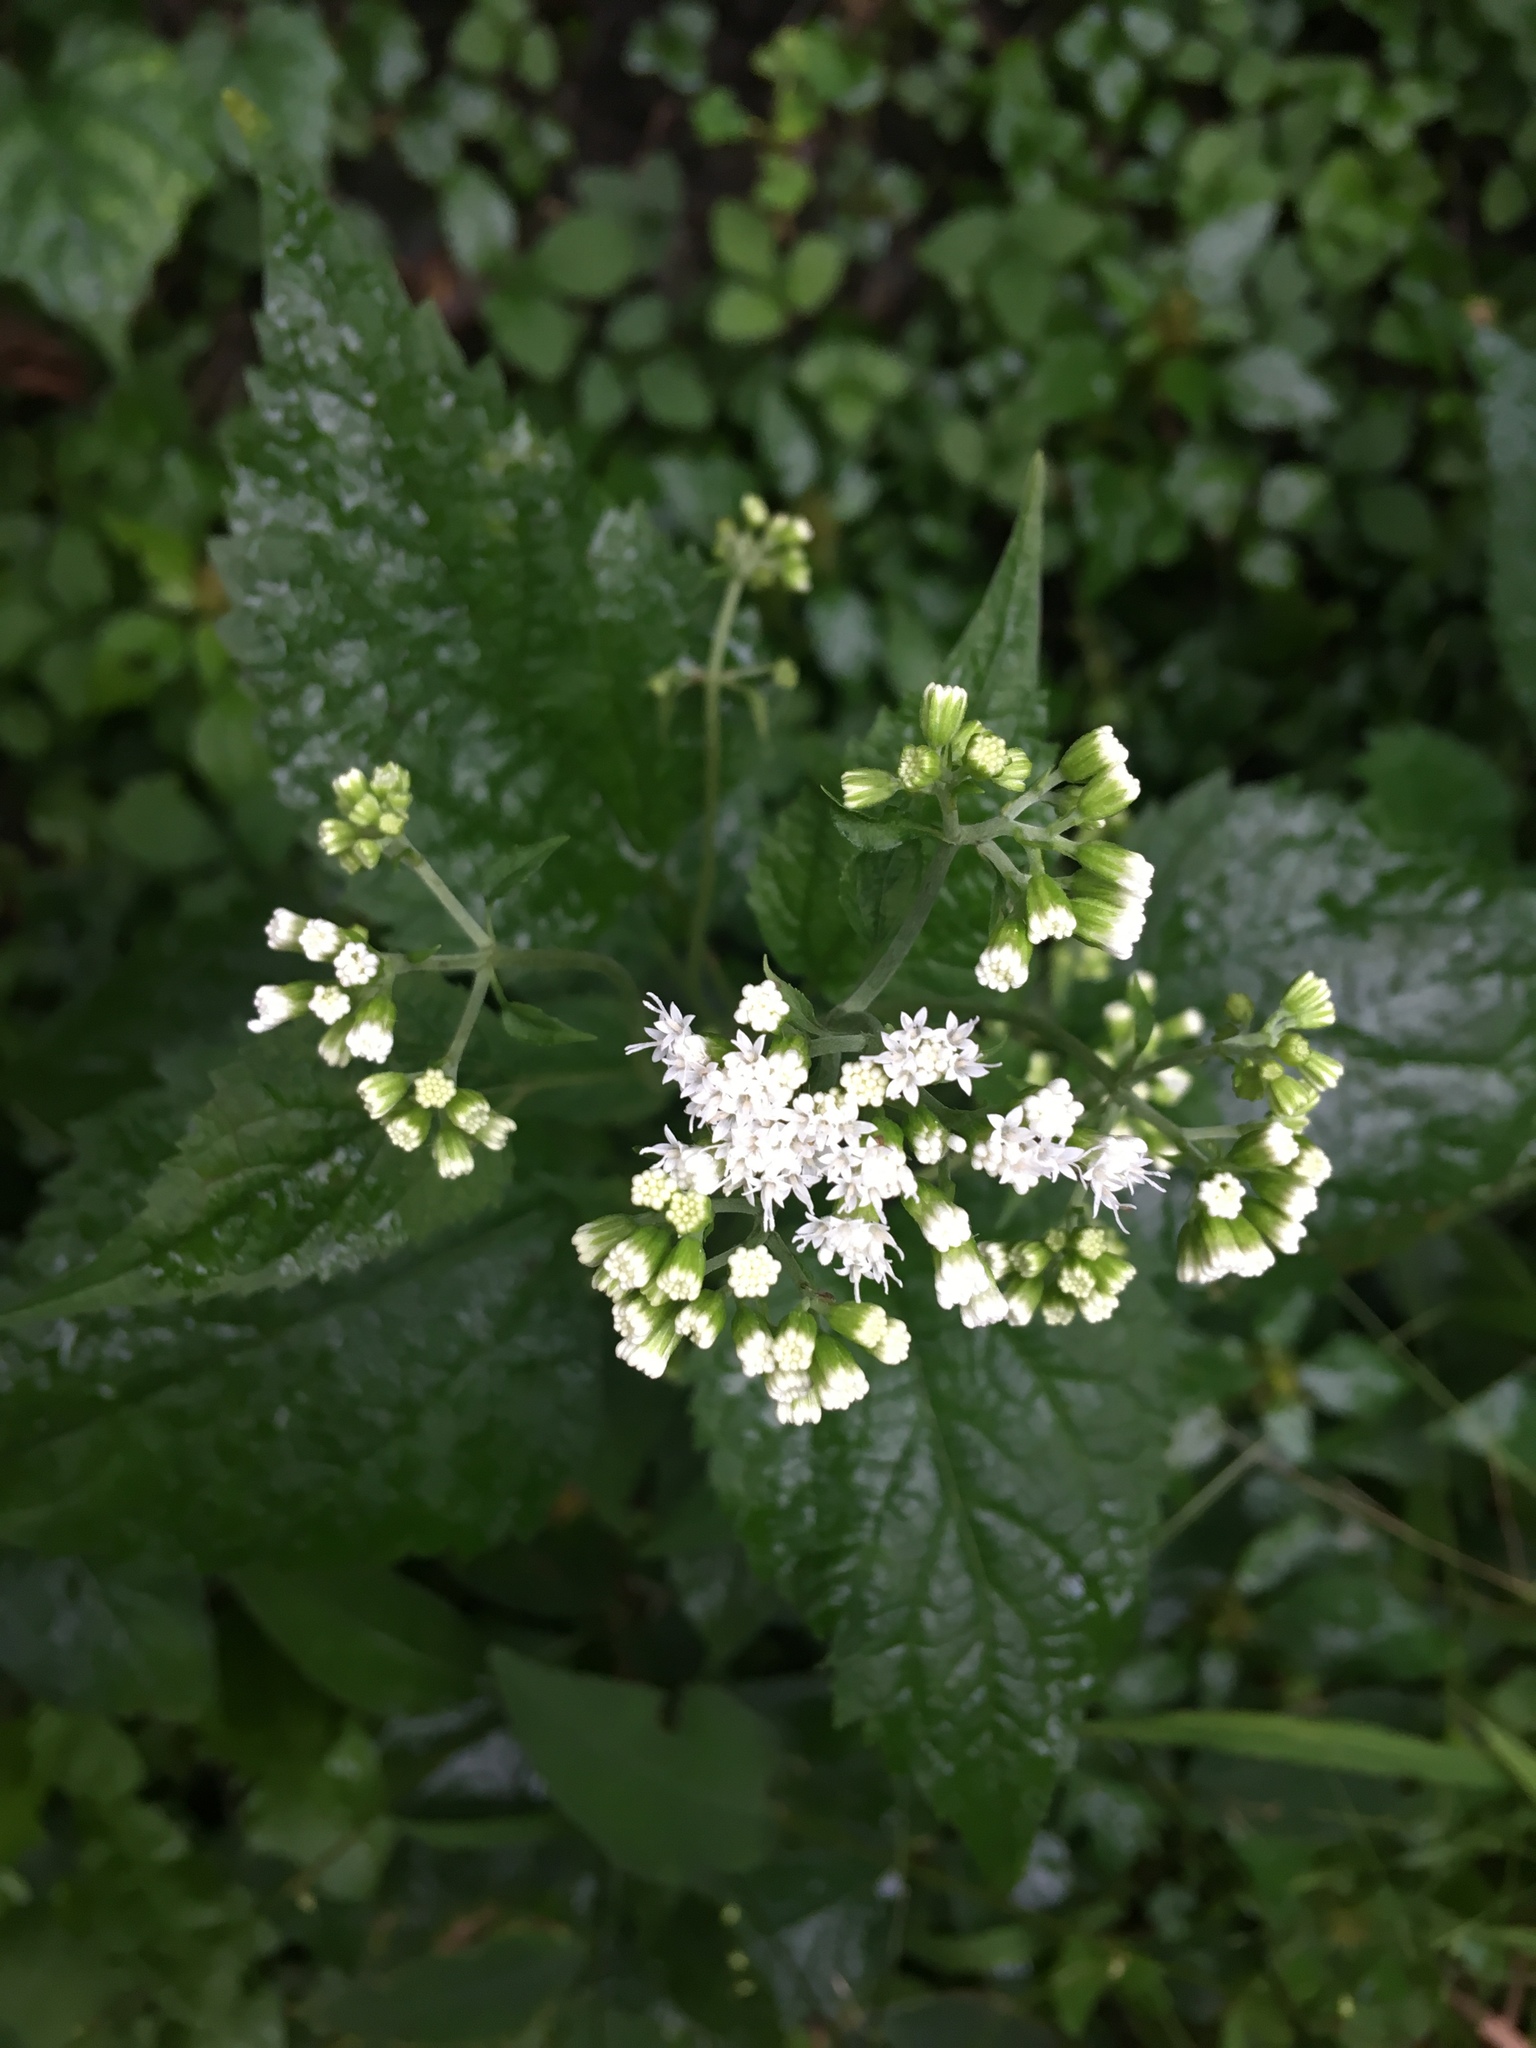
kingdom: Plantae
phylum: Tracheophyta
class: Magnoliopsida
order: Asterales
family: Asteraceae
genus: Ageratina
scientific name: Ageratina altissima
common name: White snakeroot
